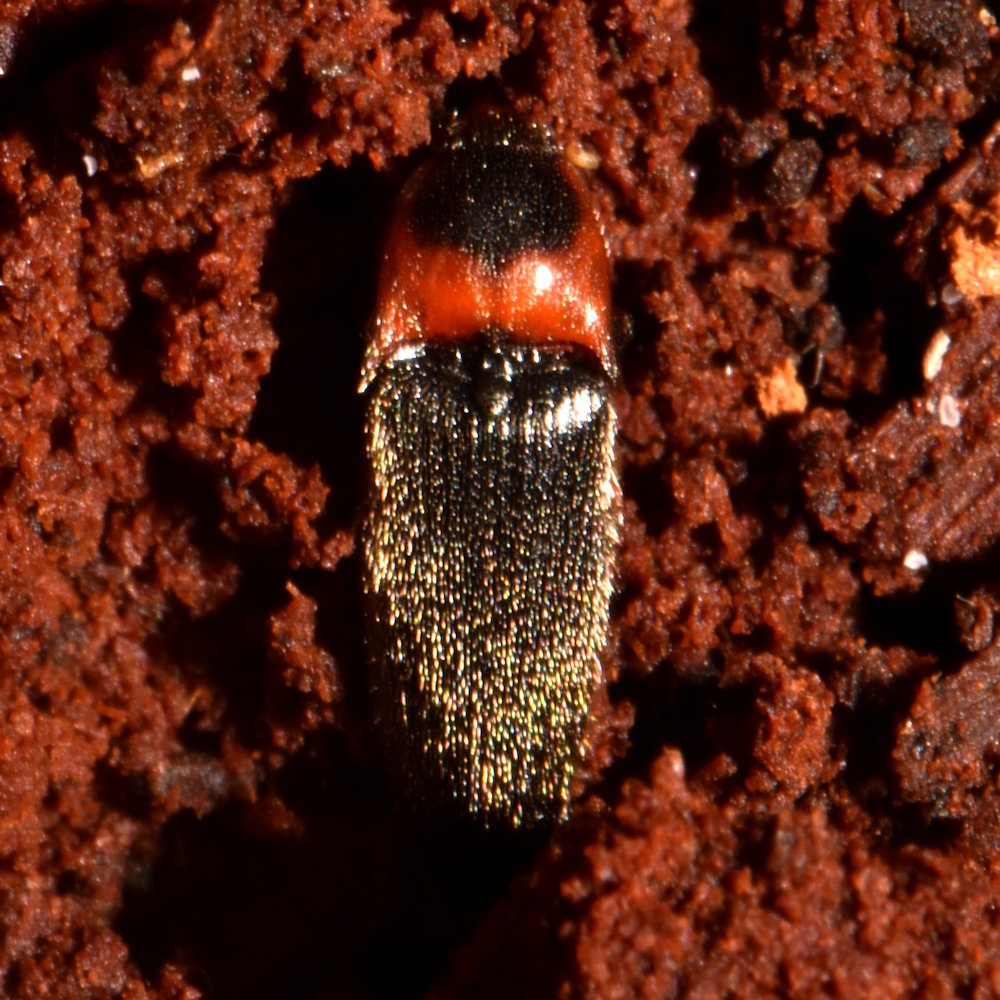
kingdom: Animalia
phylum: Arthropoda
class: Insecta
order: Coleoptera
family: Elateridae
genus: Ampedus
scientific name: Ampedus rubricus
